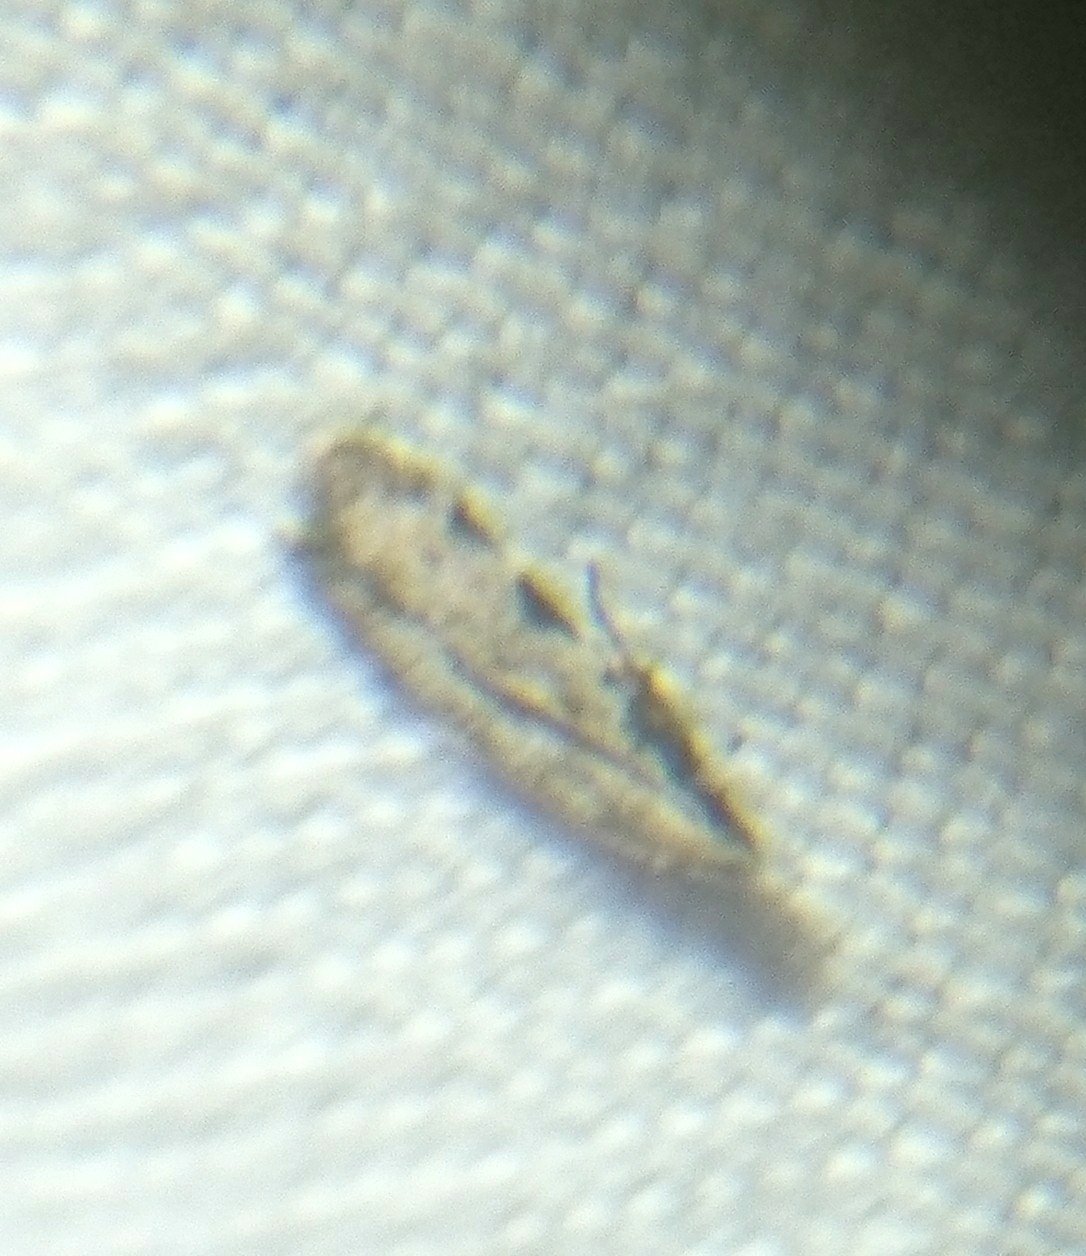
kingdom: Animalia
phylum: Arthropoda
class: Insecta
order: Lepidoptera
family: Autostichidae
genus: Taygete
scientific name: Taygete gallaegenitella
